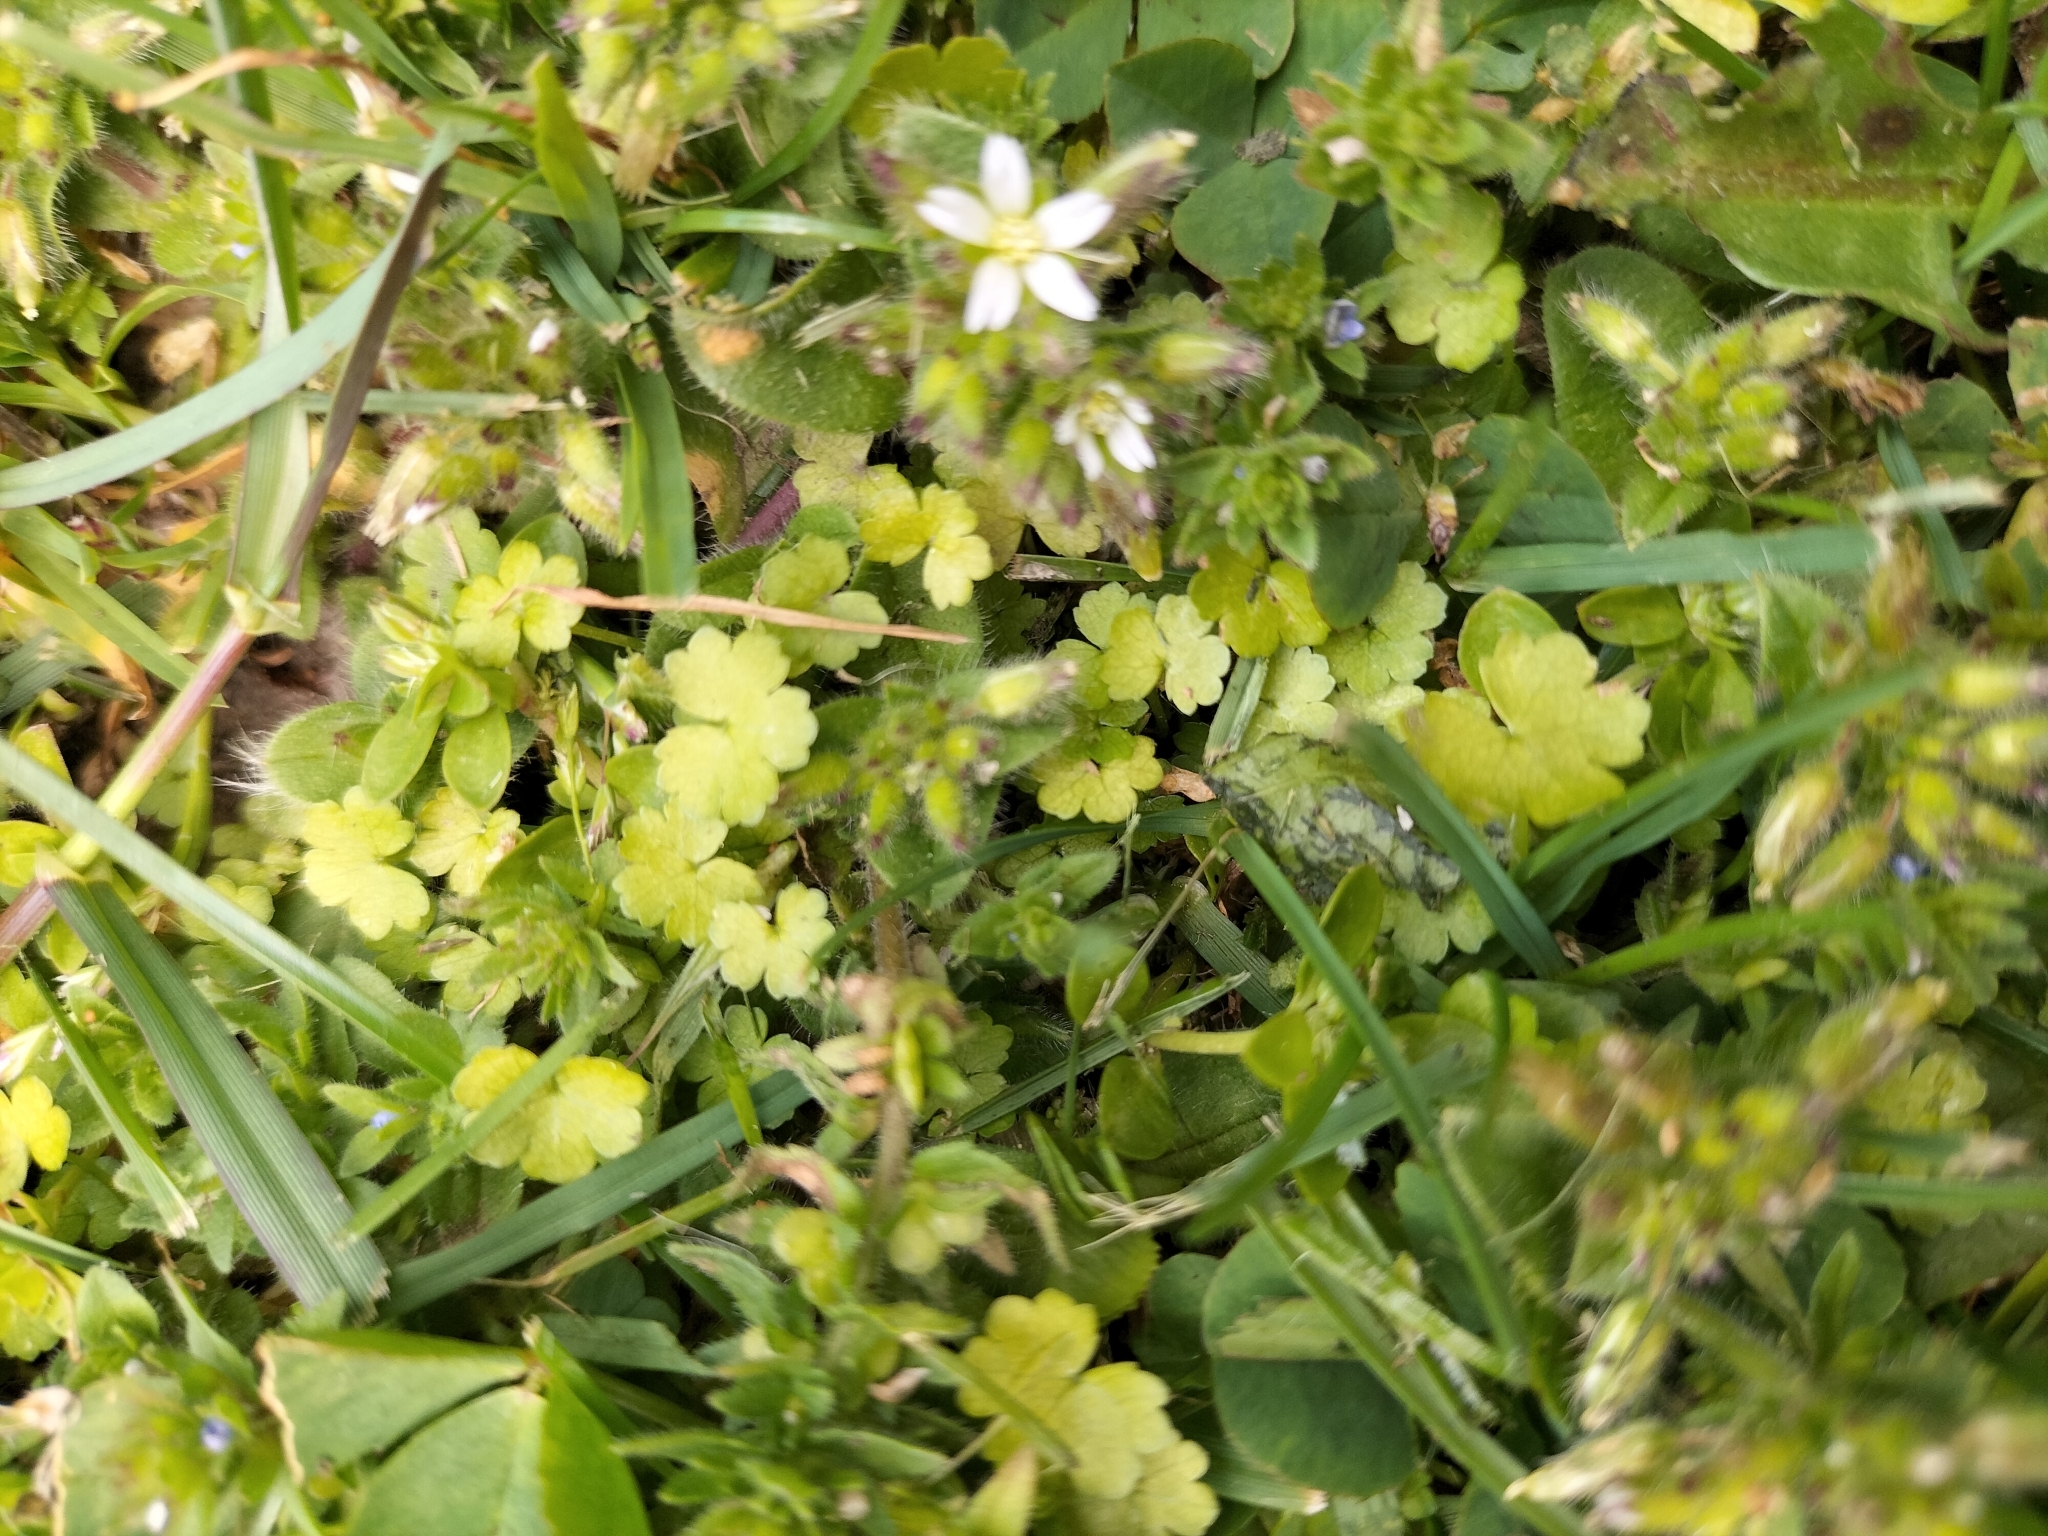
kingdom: Plantae
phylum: Tracheophyta
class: Magnoliopsida
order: Apiales
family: Araliaceae
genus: Hydrocotyle
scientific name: Hydrocotyle heteromeria
